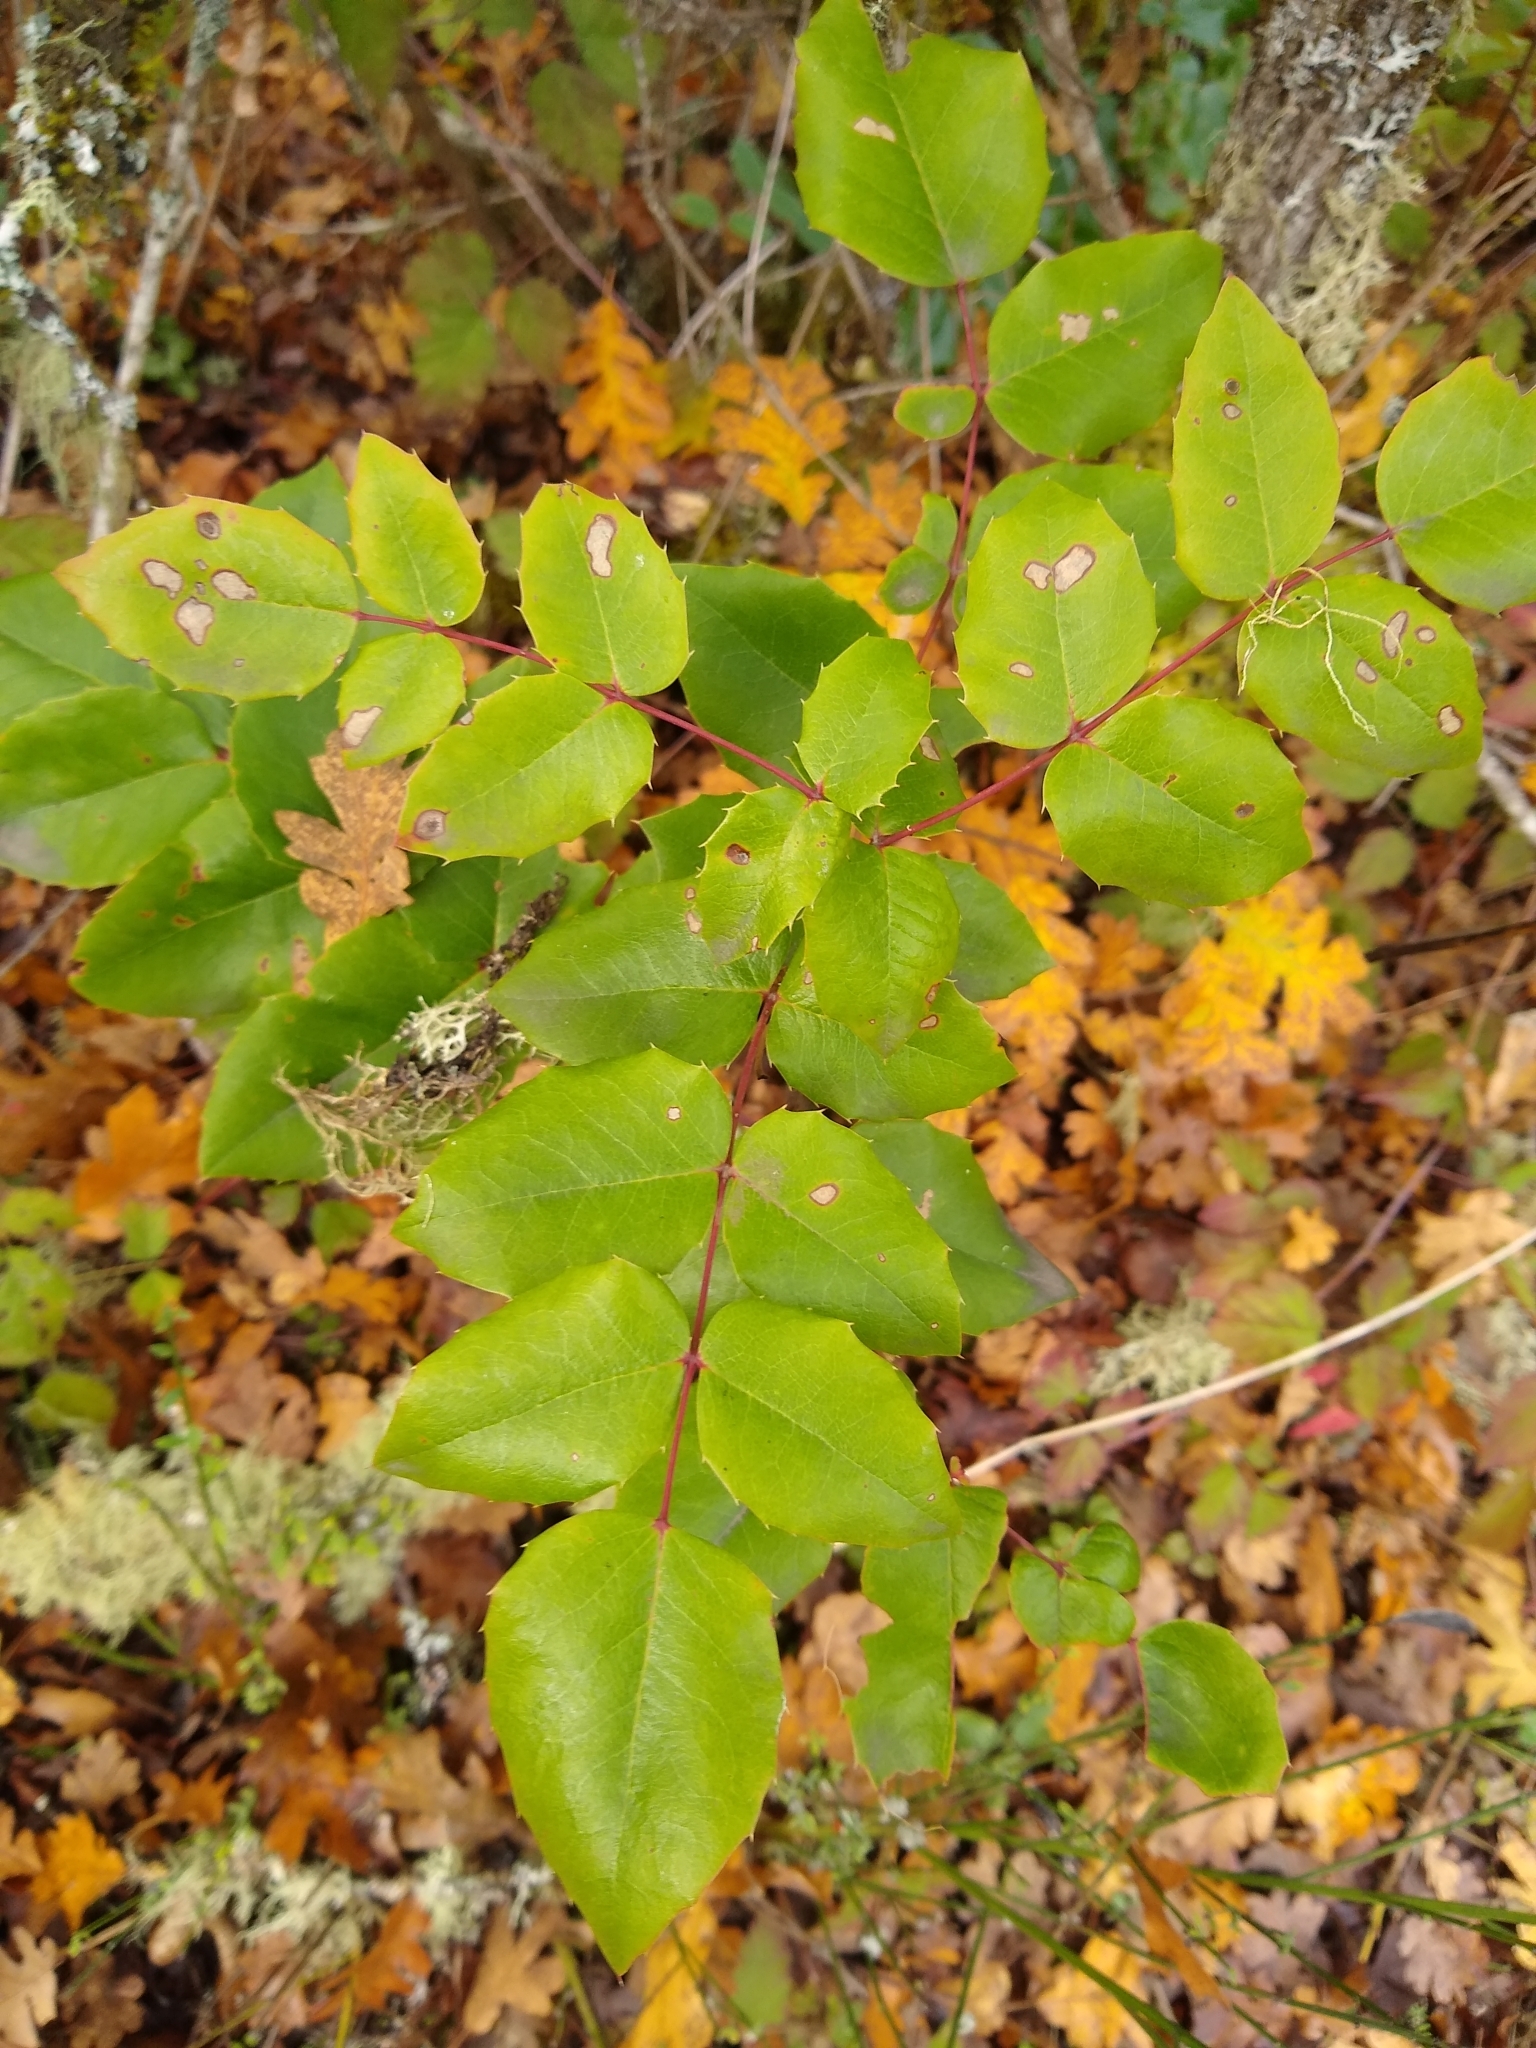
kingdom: Plantae
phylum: Tracheophyta
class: Magnoliopsida
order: Ranunculales
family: Berberidaceae
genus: Mahonia
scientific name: Mahonia aquifolium
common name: Oregon-grape
